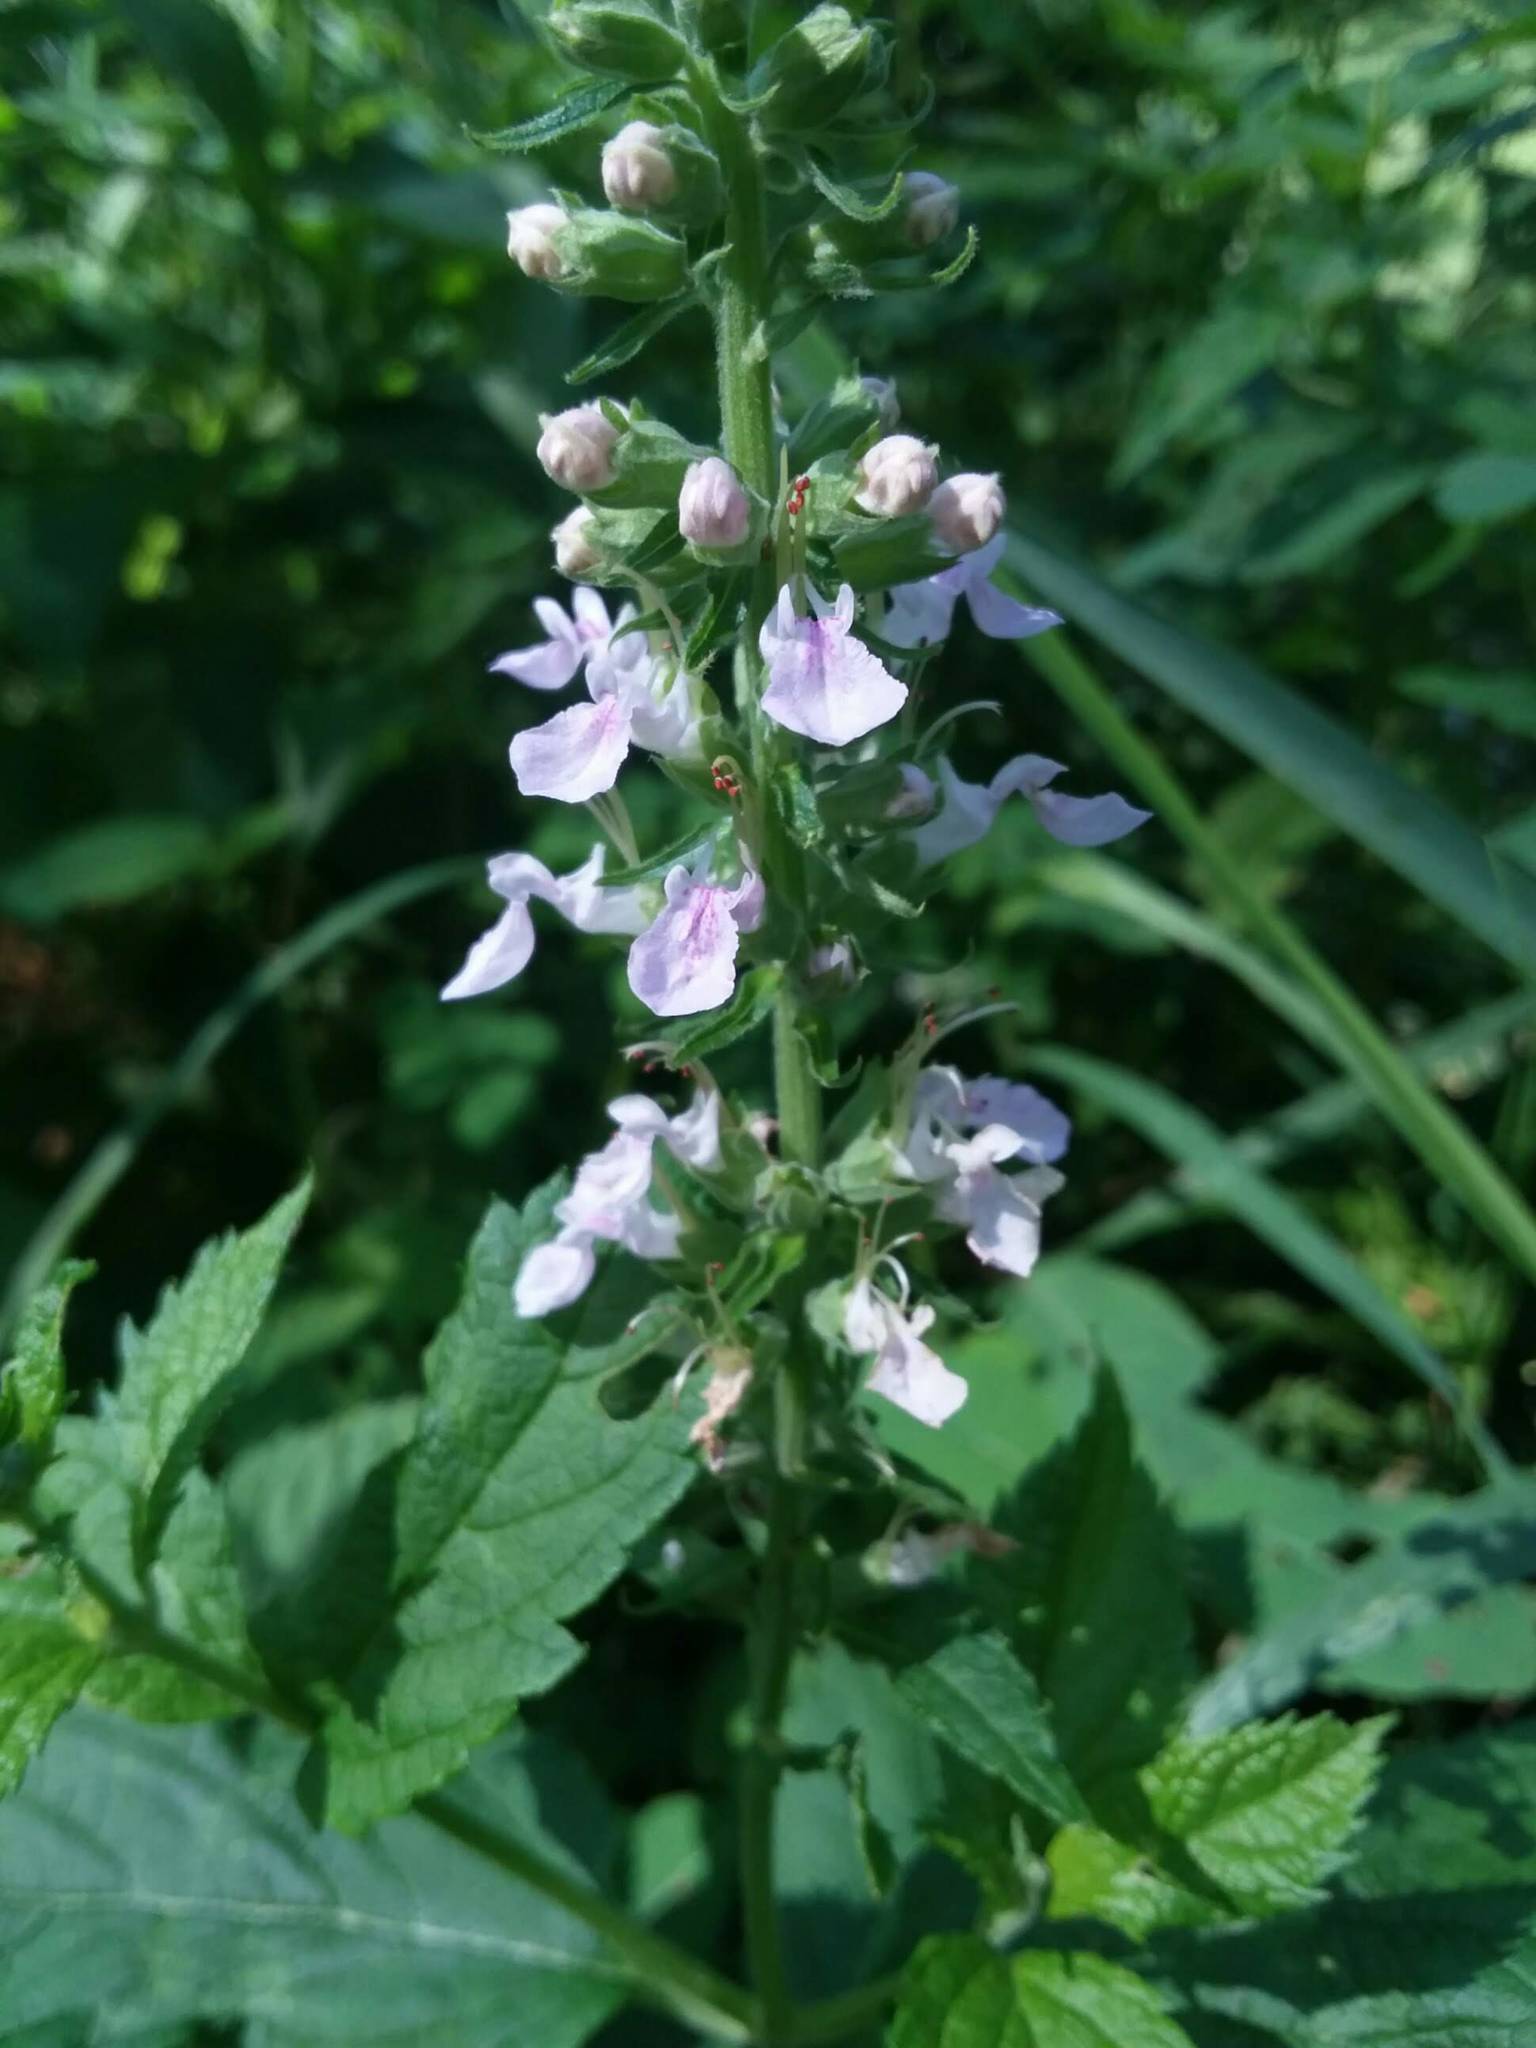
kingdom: Plantae
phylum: Tracheophyta
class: Magnoliopsida
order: Lamiales
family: Lamiaceae
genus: Teucrium
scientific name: Teucrium canadense
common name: American germander
